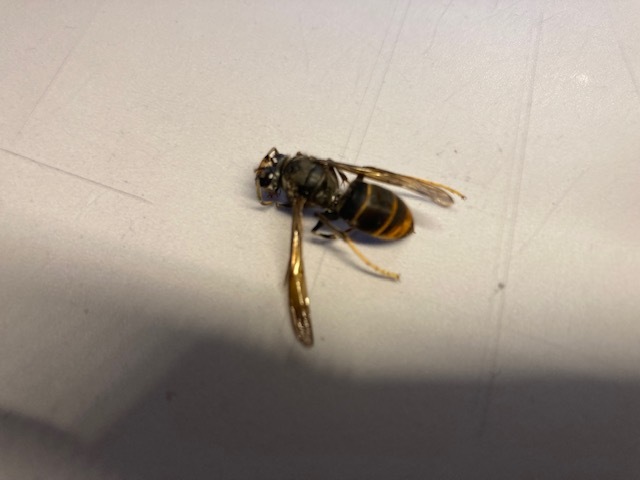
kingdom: Animalia
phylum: Arthropoda
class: Insecta
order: Hymenoptera
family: Vespidae
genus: Vespa
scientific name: Vespa velutina
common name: Asian hornet
